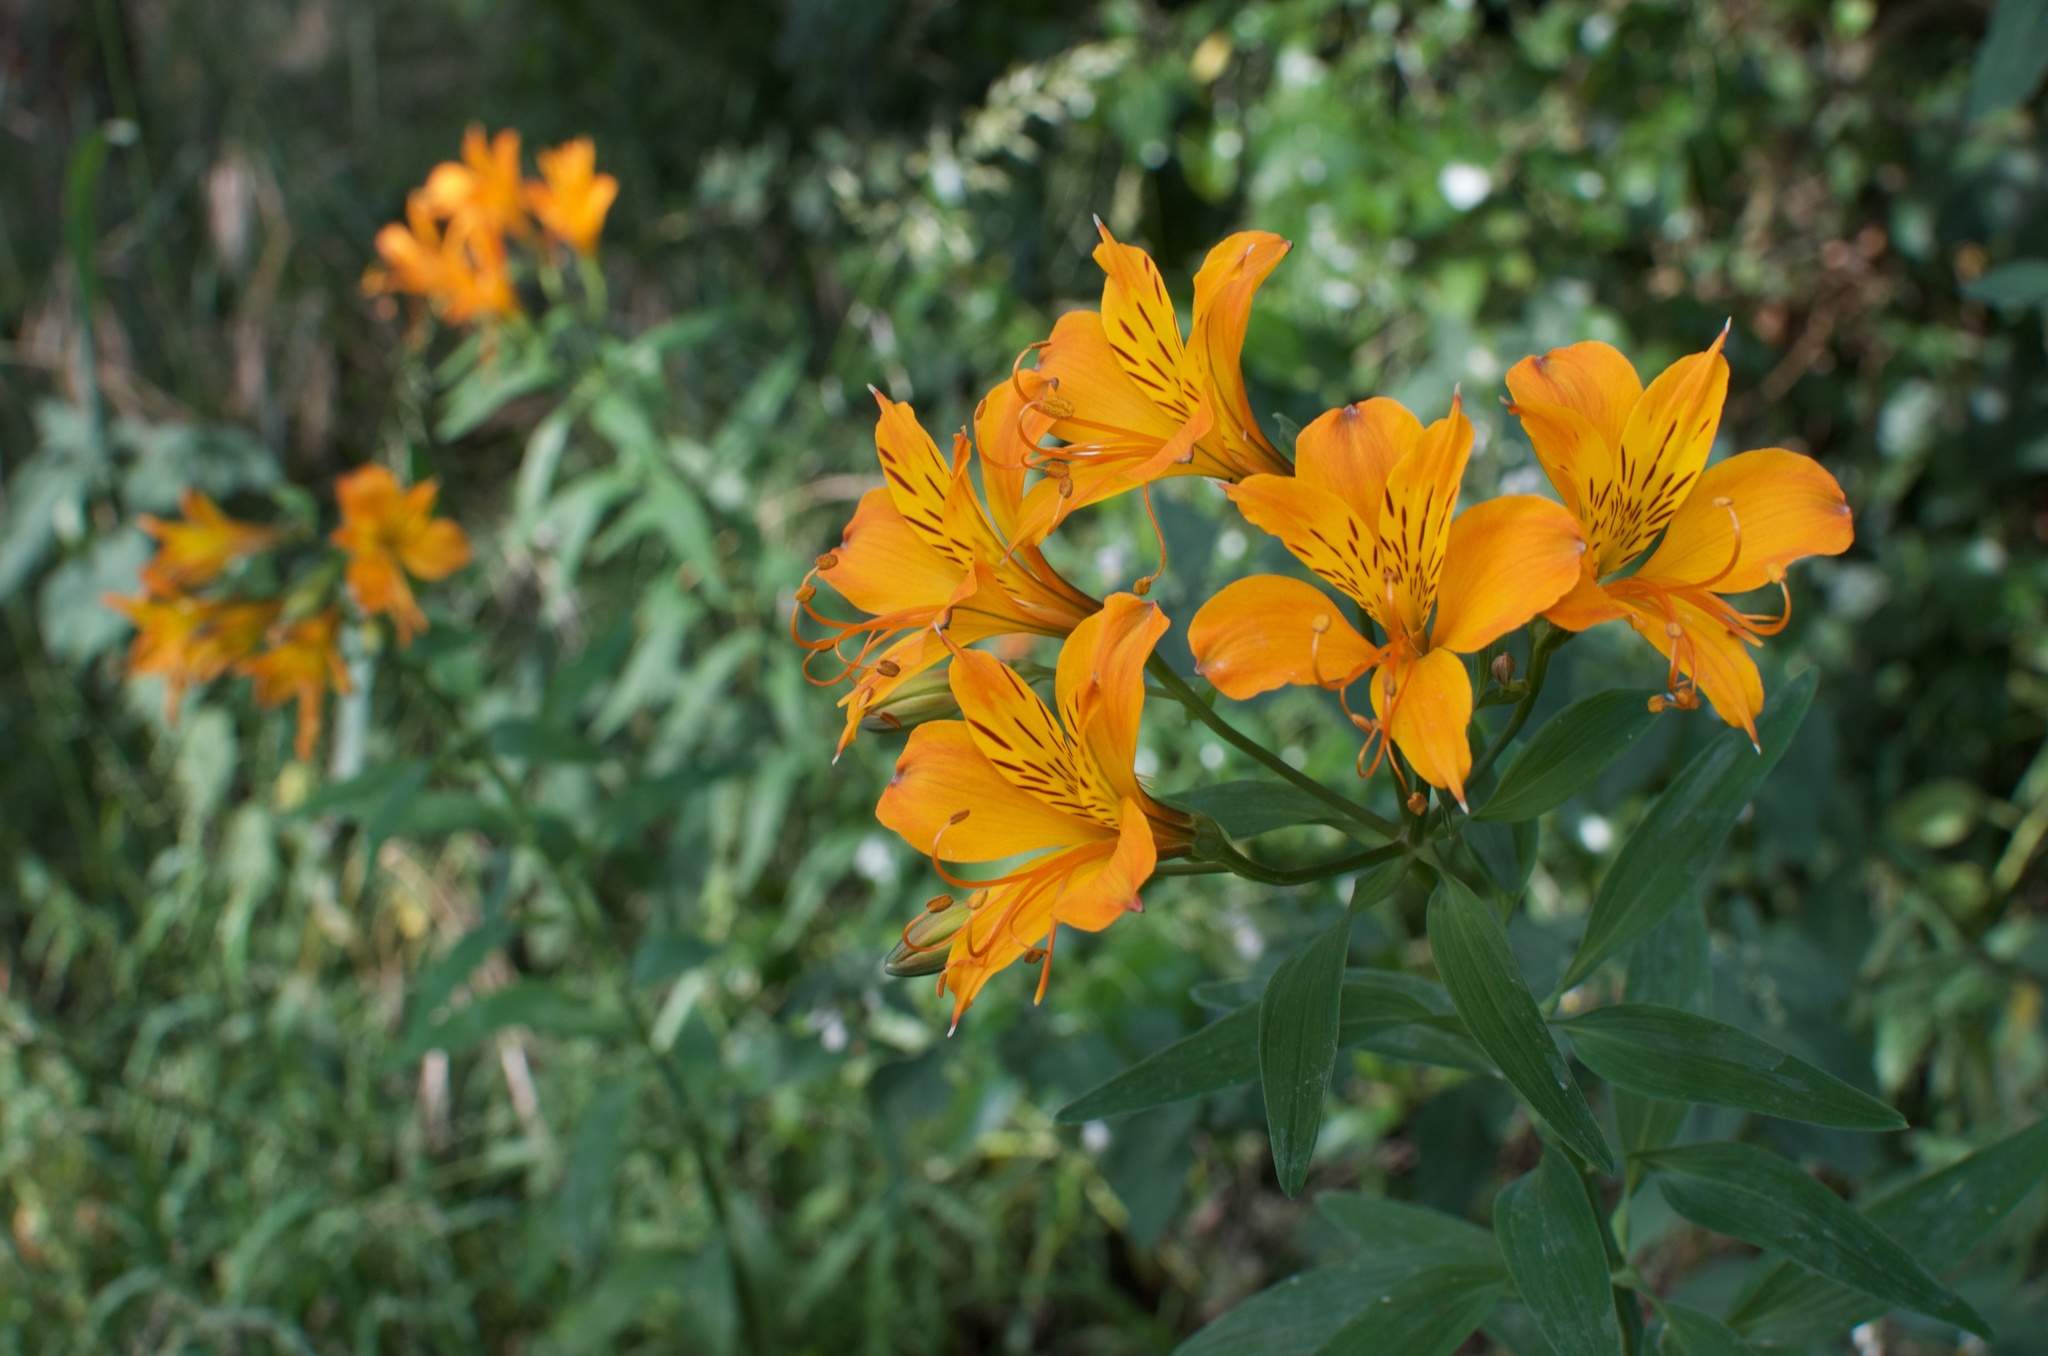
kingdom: Plantae
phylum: Tracheophyta
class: Liliopsida
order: Liliales
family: Alstroemeriaceae
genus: Alstroemeria
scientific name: Alstroemeria aurea
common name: Peruvian lily
